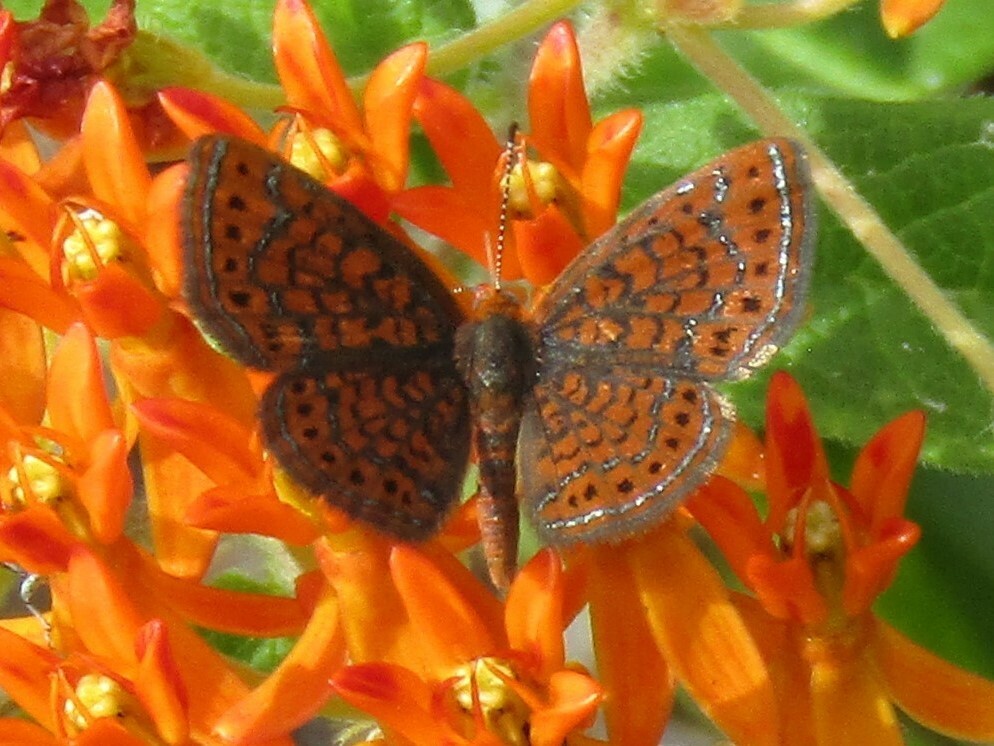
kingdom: Animalia
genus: Calephelis
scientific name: Calephelis virginiensis
